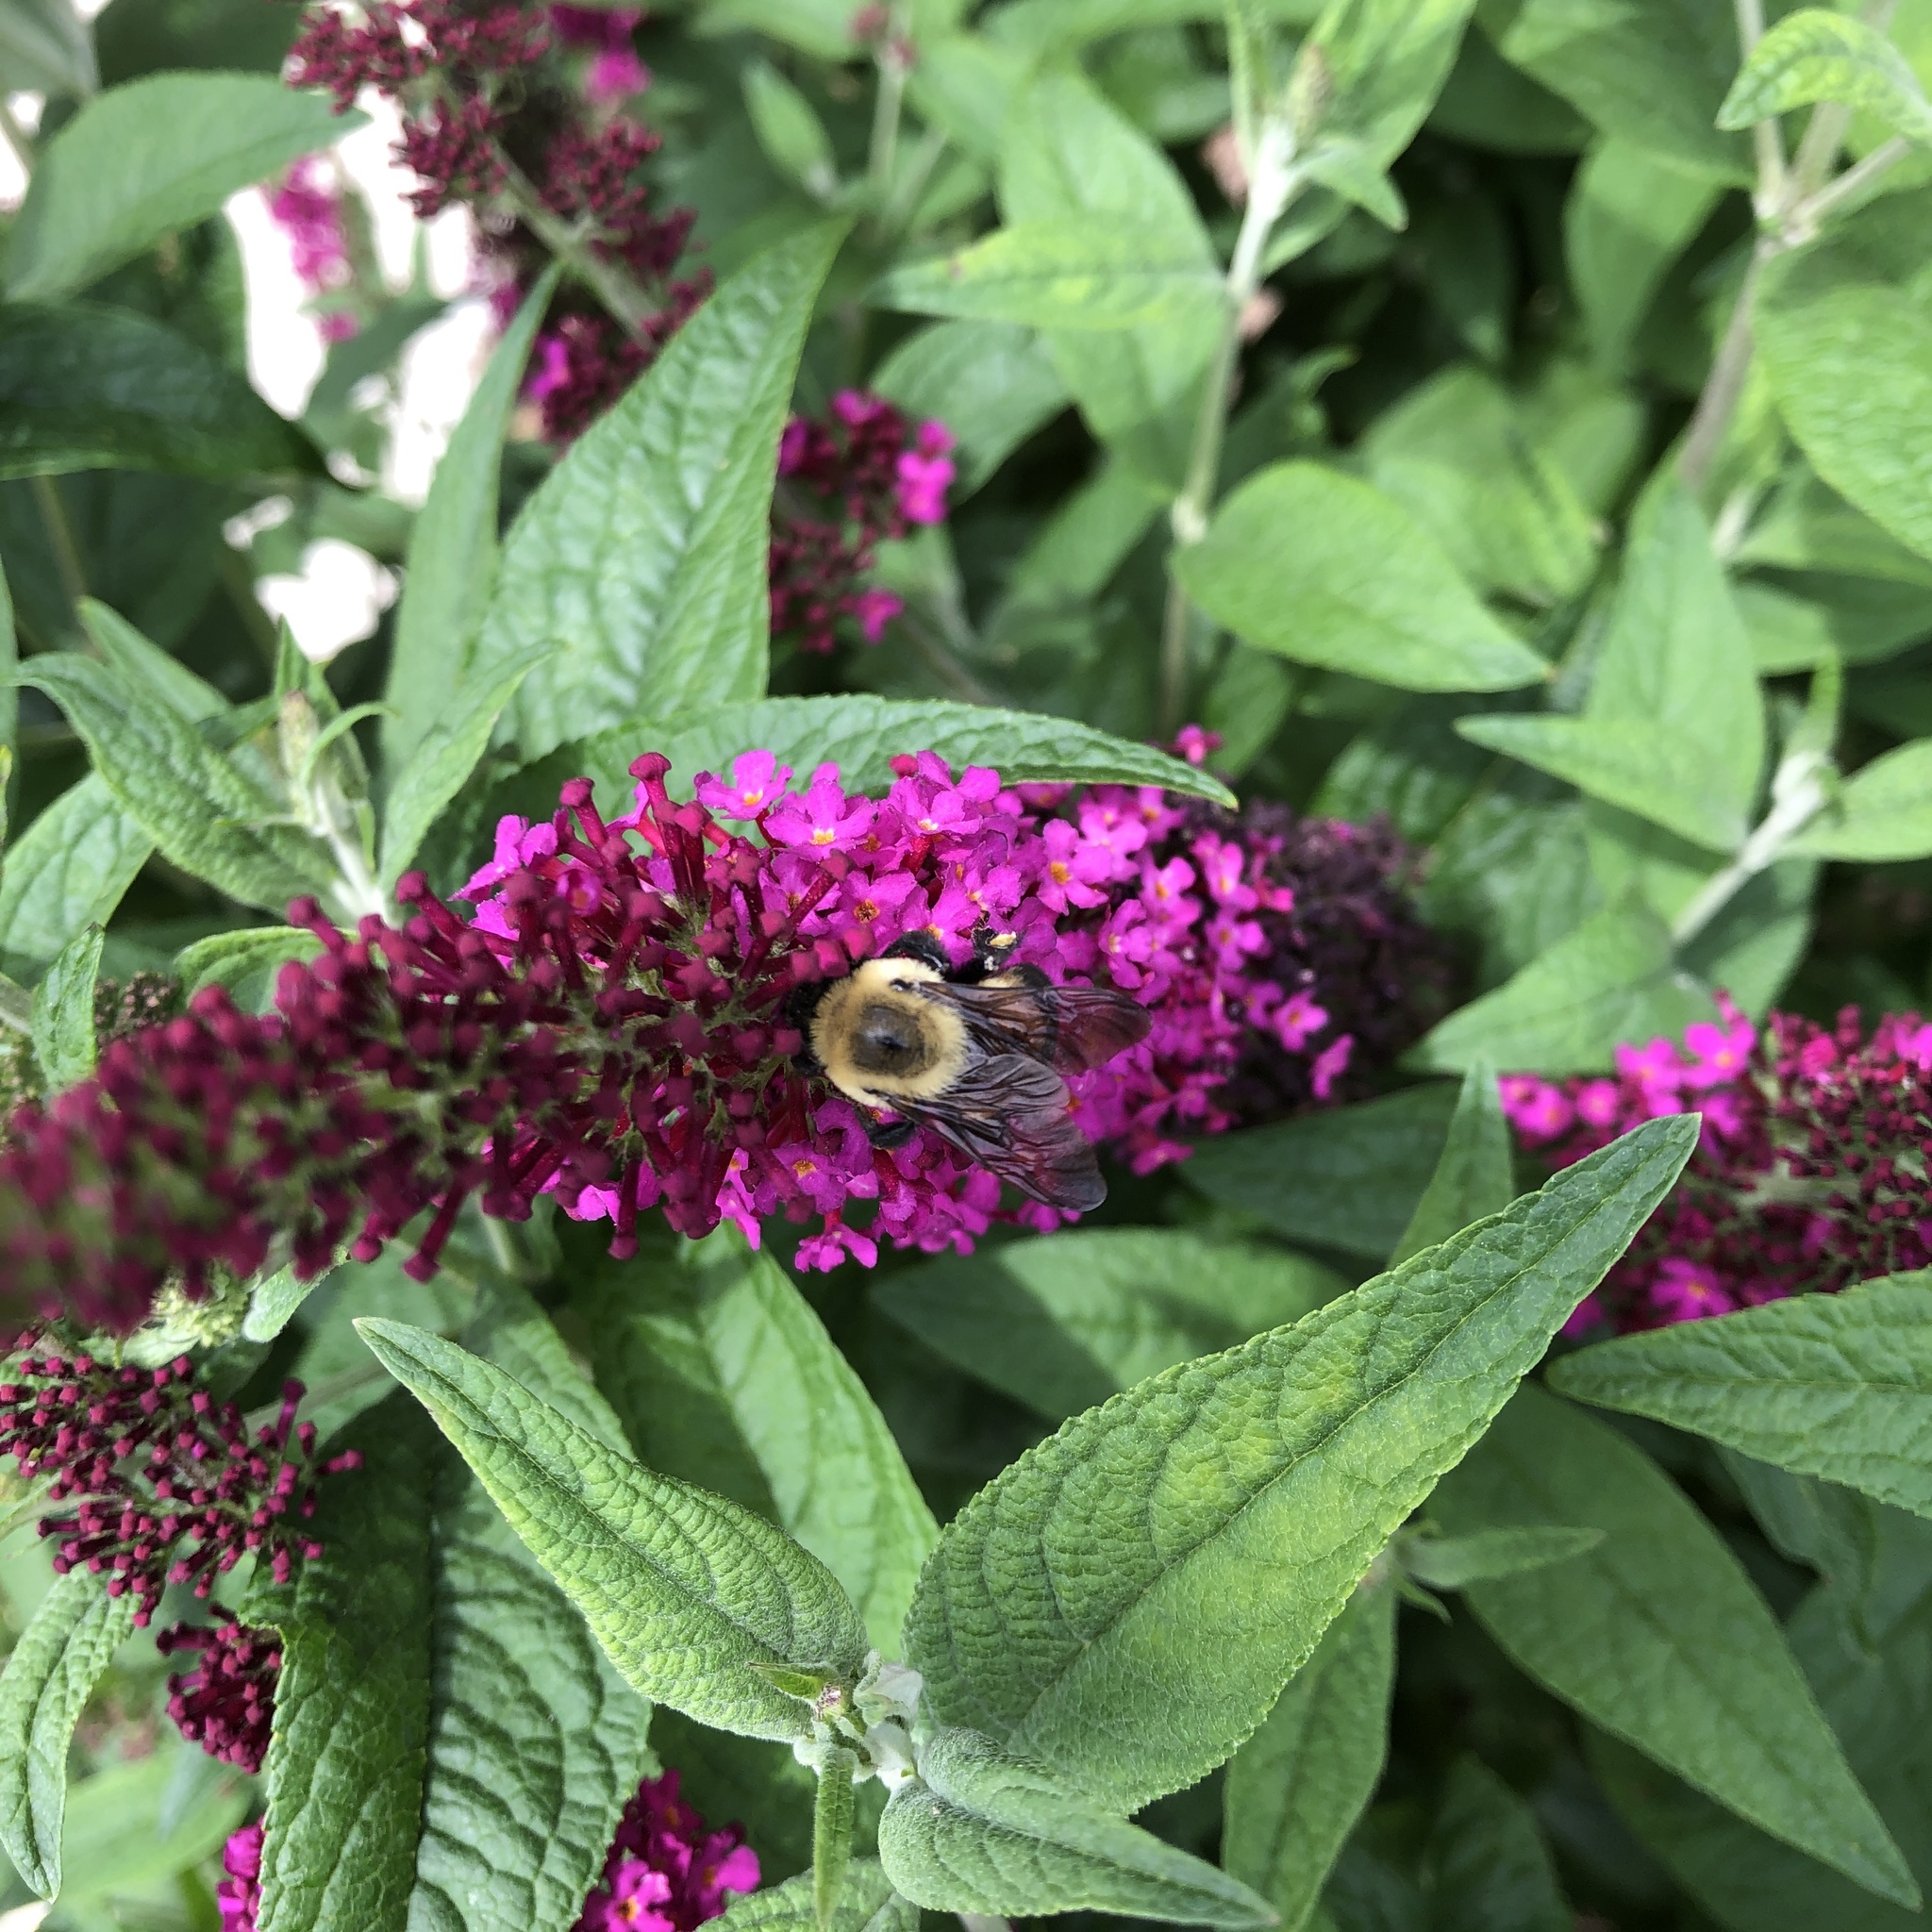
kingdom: Animalia
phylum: Arthropoda
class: Insecta
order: Hymenoptera
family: Apidae
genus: Bombus
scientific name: Bombus griseocollis
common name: Brown-belted bumble bee
